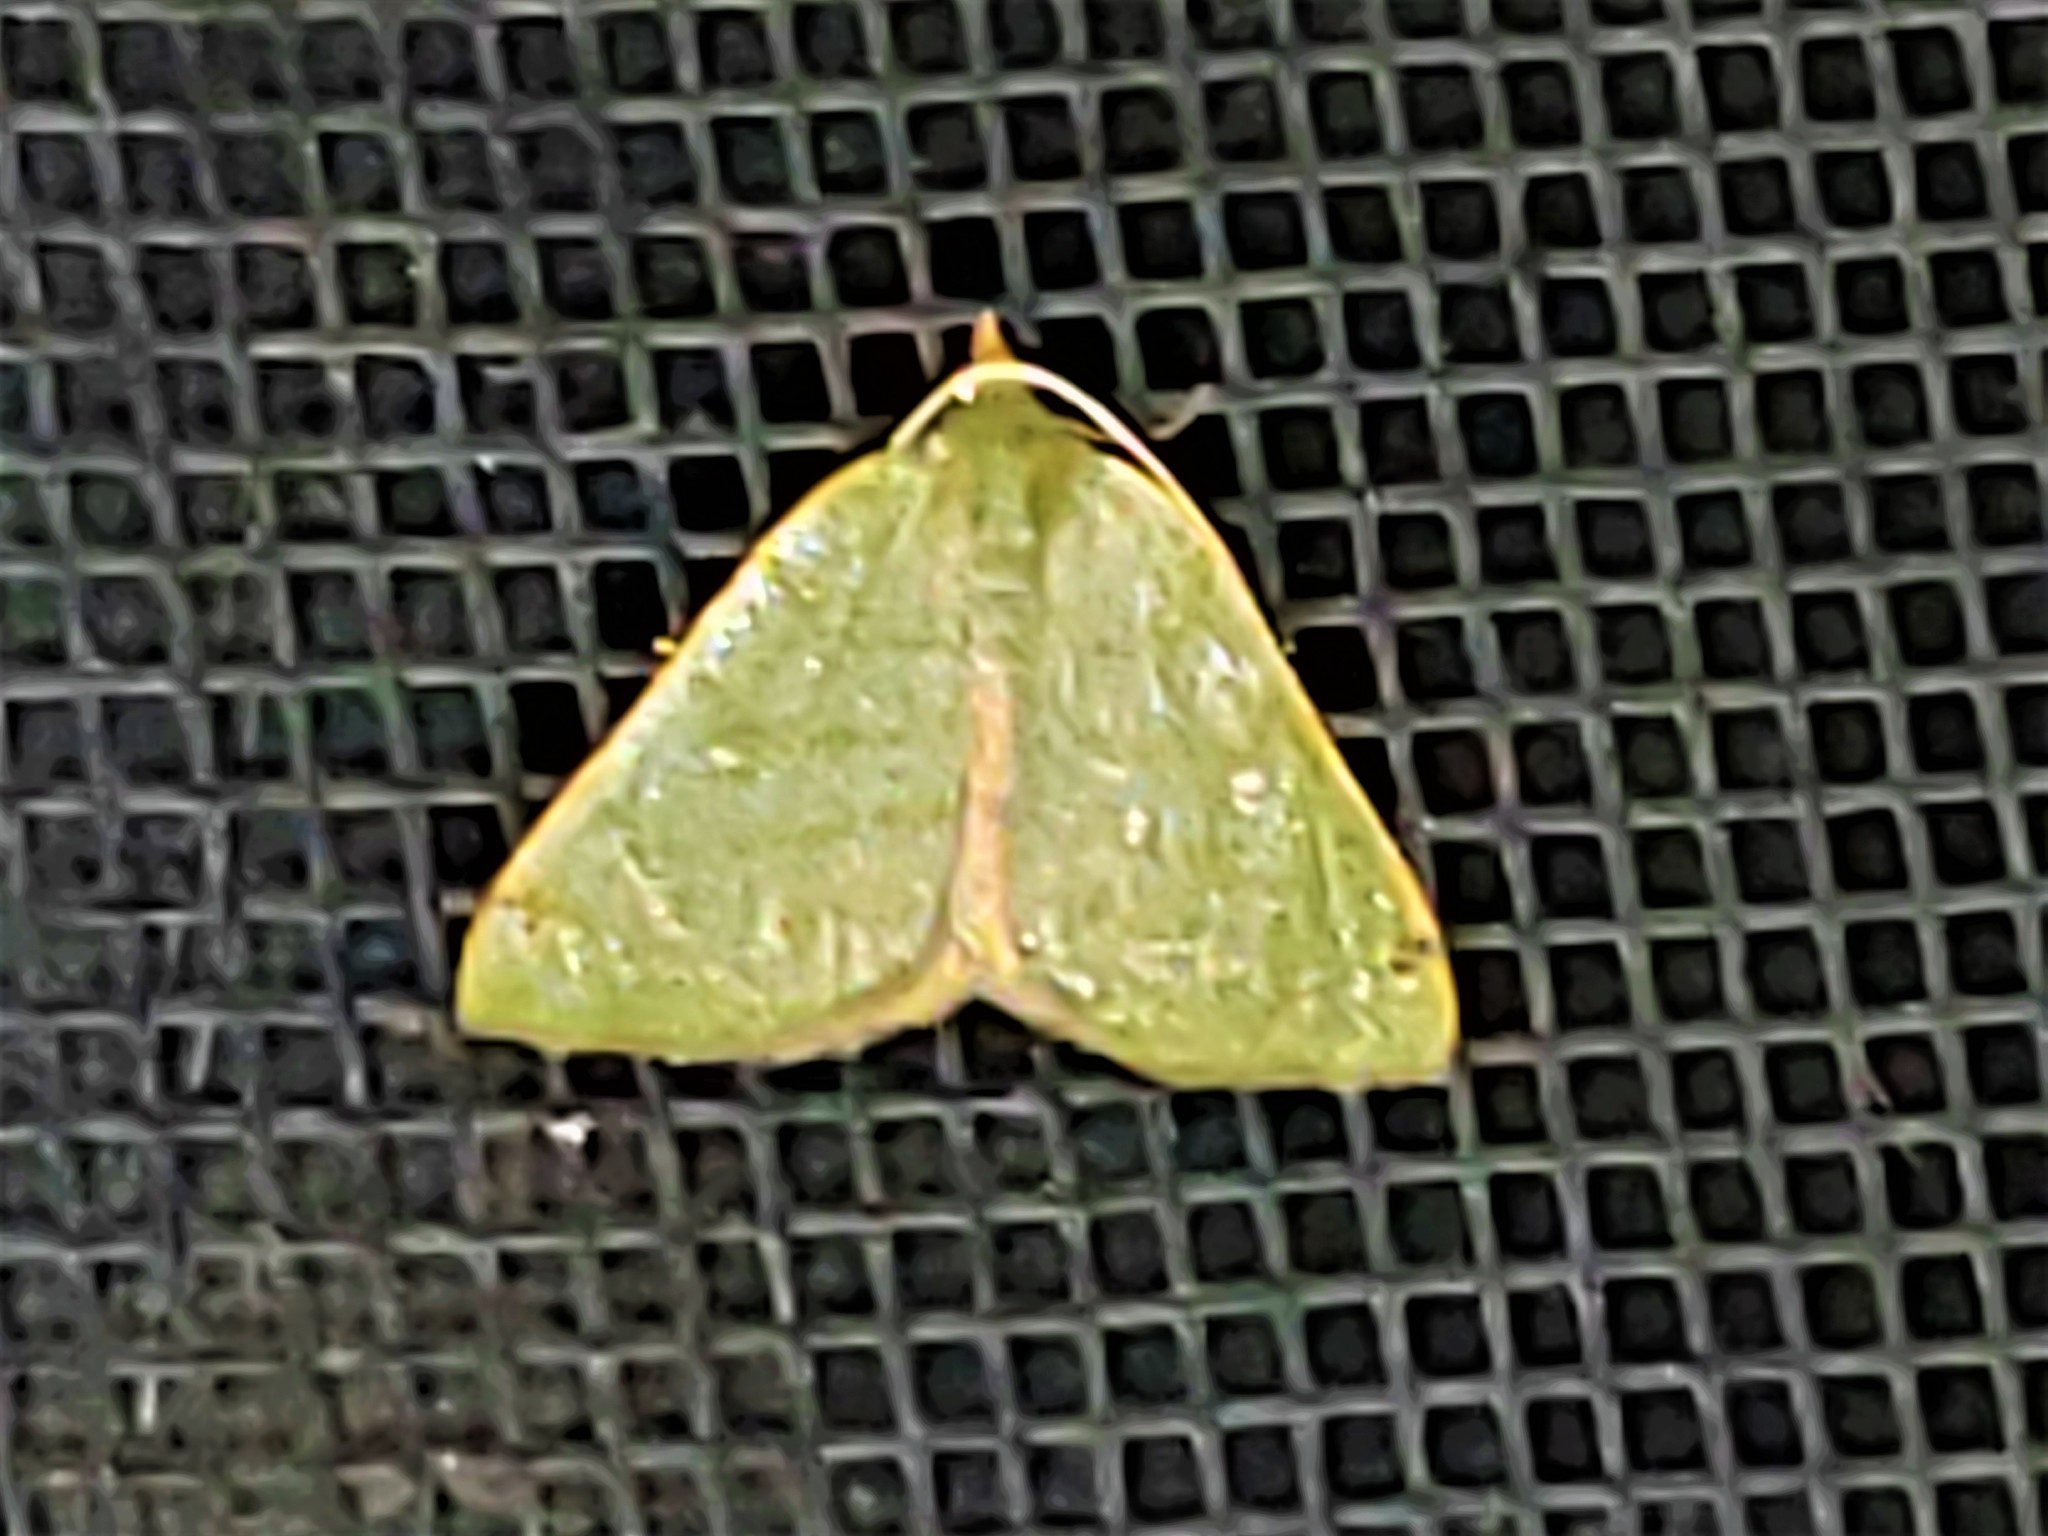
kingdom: Animalia
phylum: Arthropoda
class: Insecta
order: Lepidoptera
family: Geometridae
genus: Chloraspilates
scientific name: Chloraspilates bicoloraria
